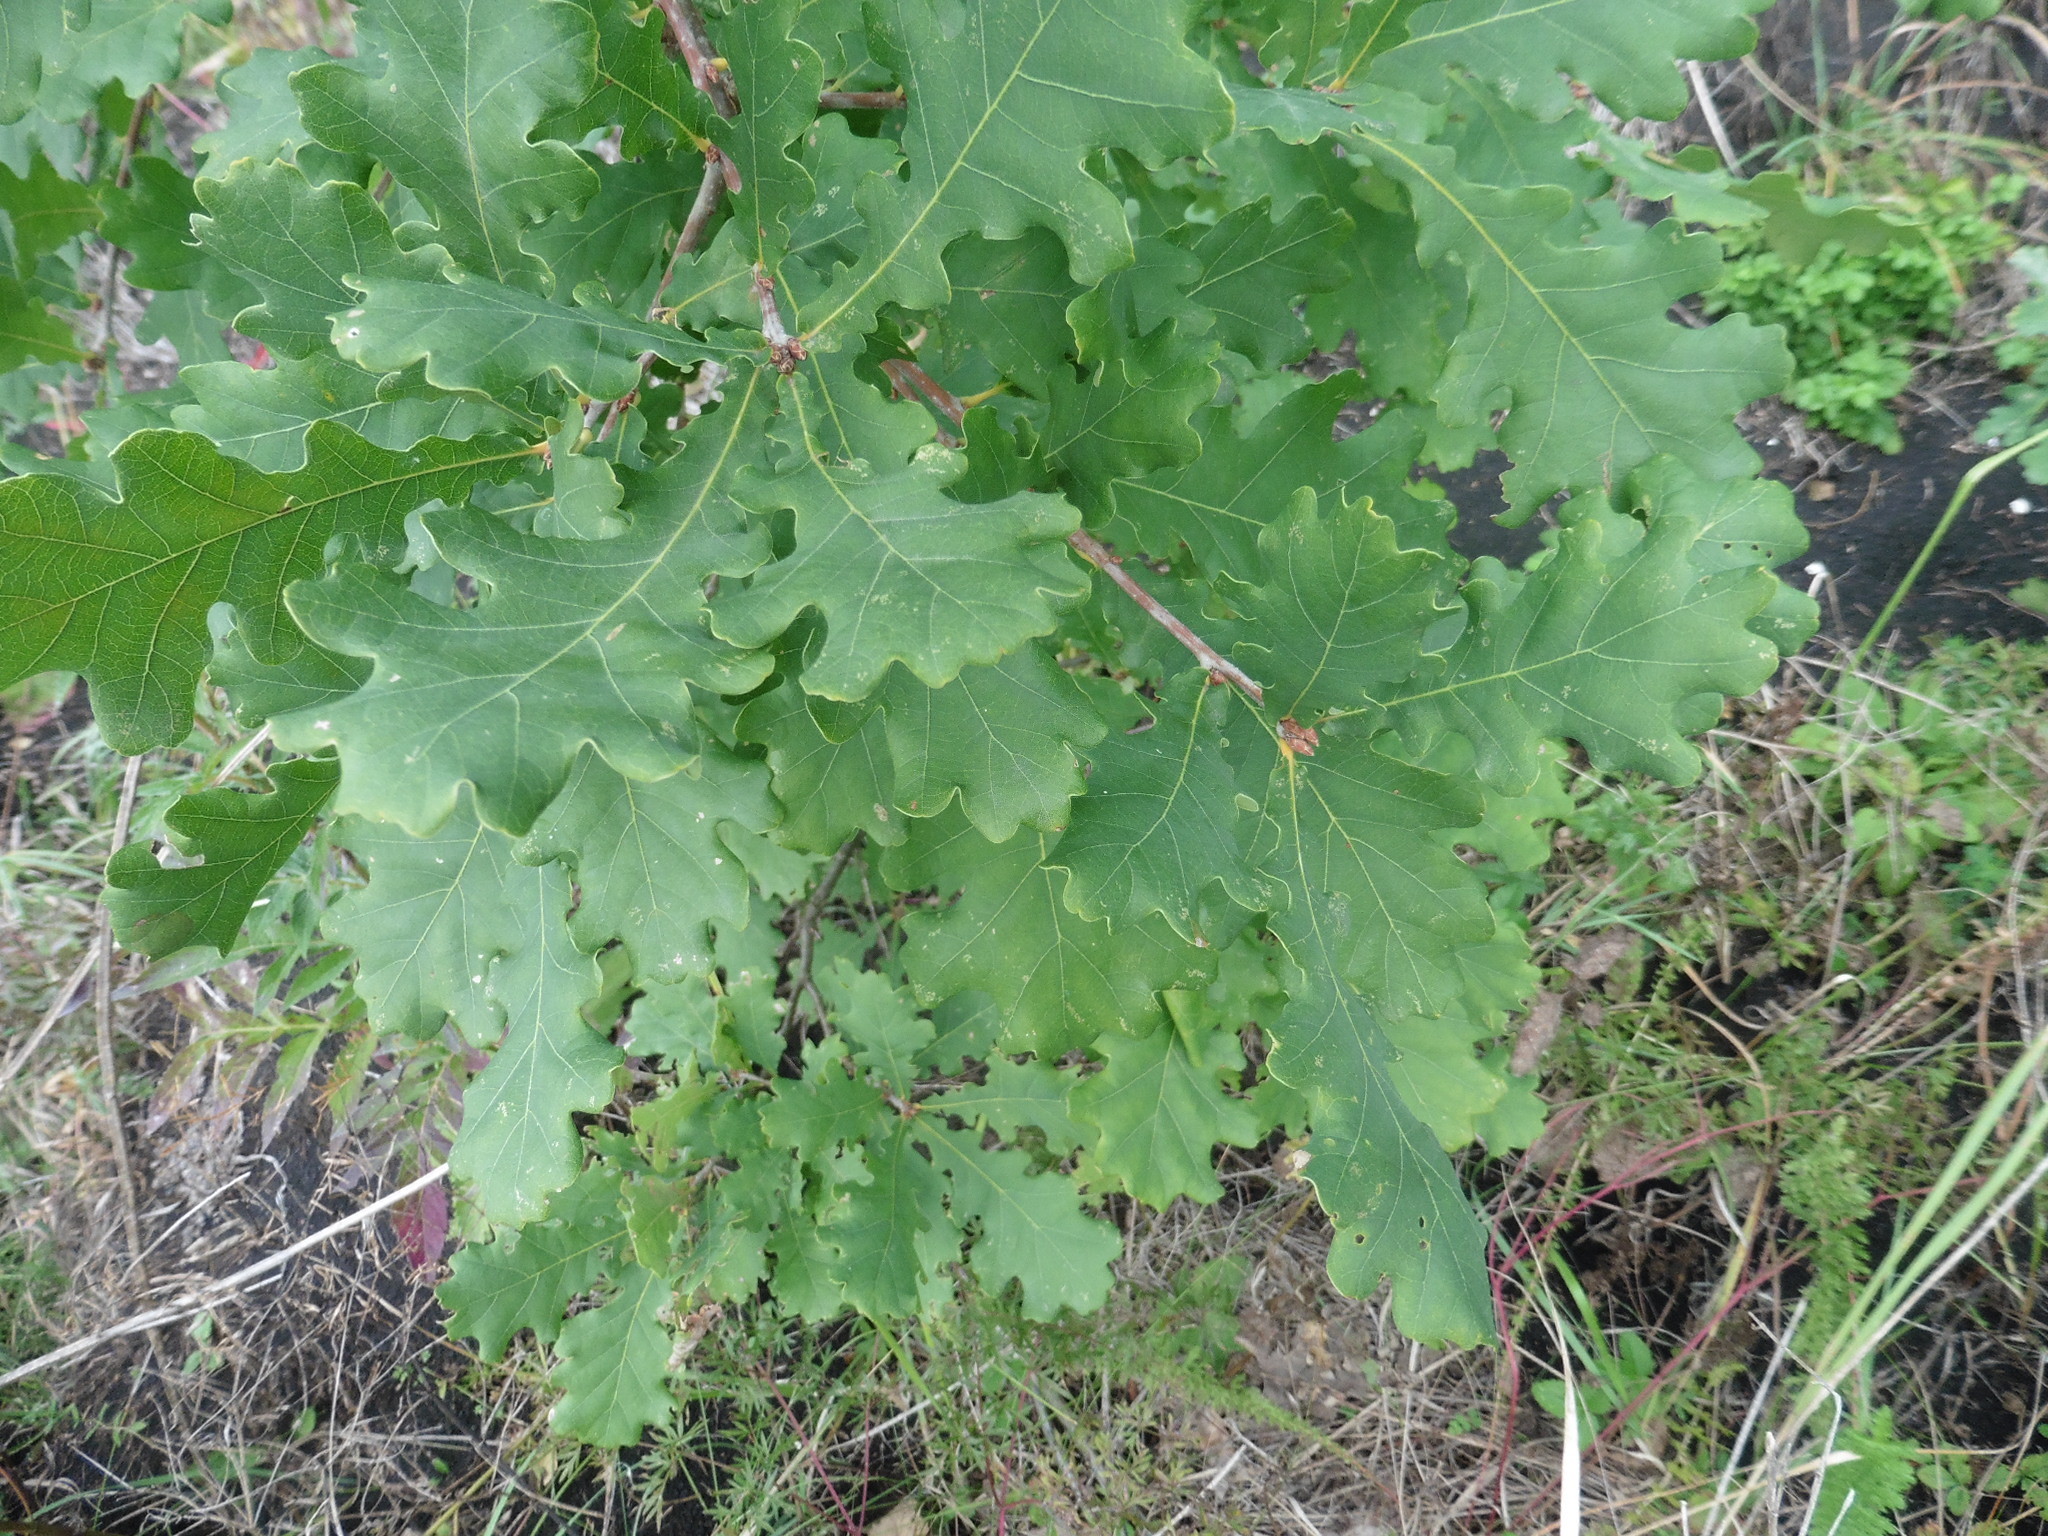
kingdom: Plantae
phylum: Tracheophyta
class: Magnoliopsida
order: Fagales
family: Fagaceae
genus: Quercus
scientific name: Quercus robur
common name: Pedunculate oak
